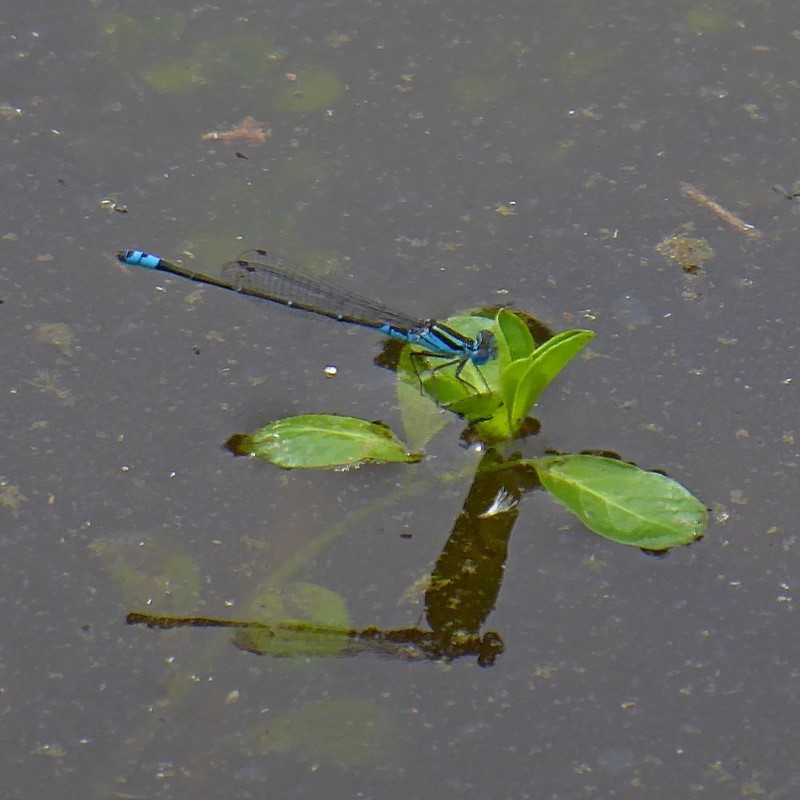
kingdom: Animalia
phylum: Arthropoda
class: Insecta
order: Odonata
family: Coenagrionidae
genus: Austroagrion
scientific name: Austroagrion watsoni
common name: Eastern billabongfly
